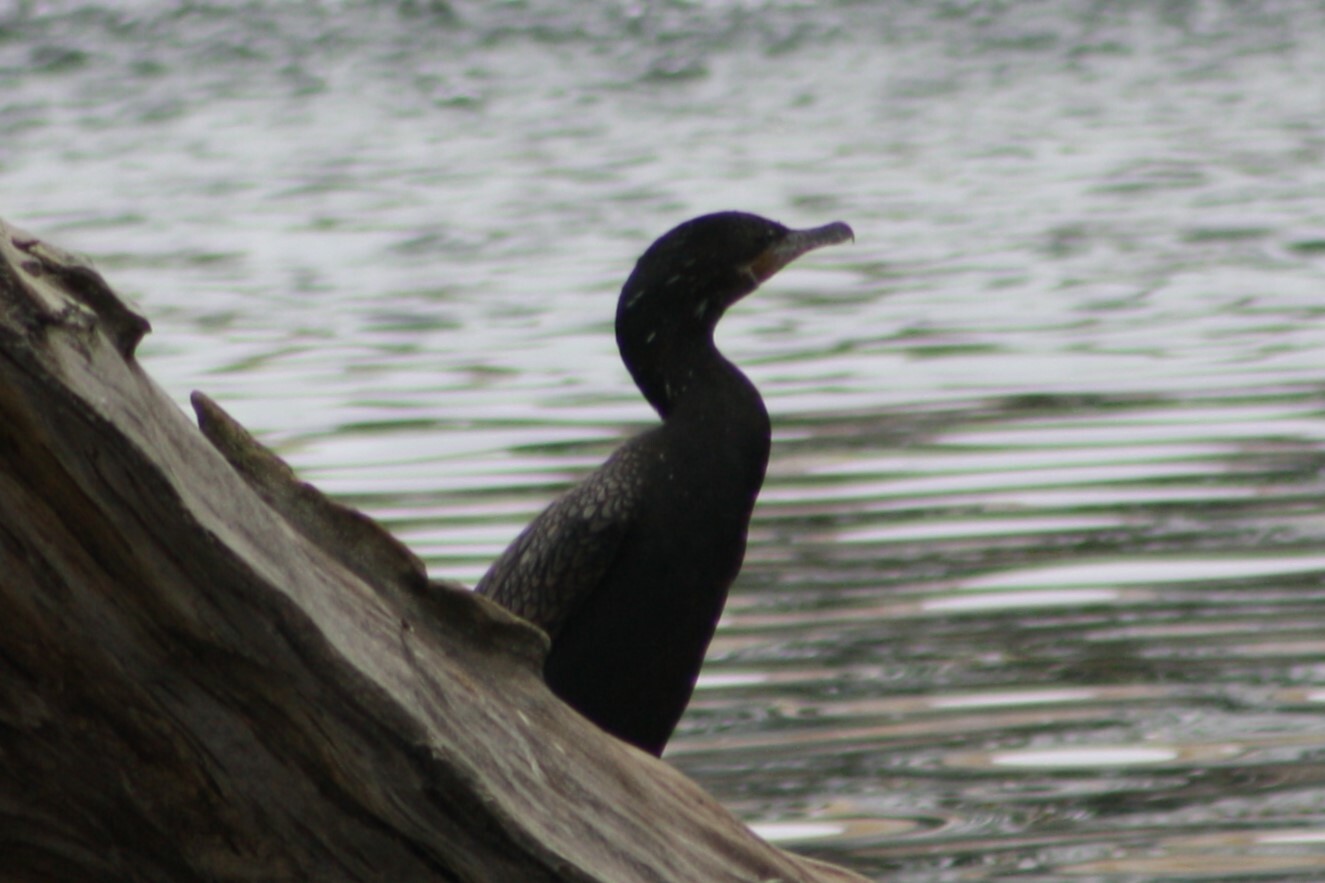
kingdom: Animalia
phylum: Chordata
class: Aves
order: Suliformes
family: Phalacrocoracidae
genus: Phalacrocorax
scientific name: Phalacrocorax brasilianus
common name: Neotropic cormorant
